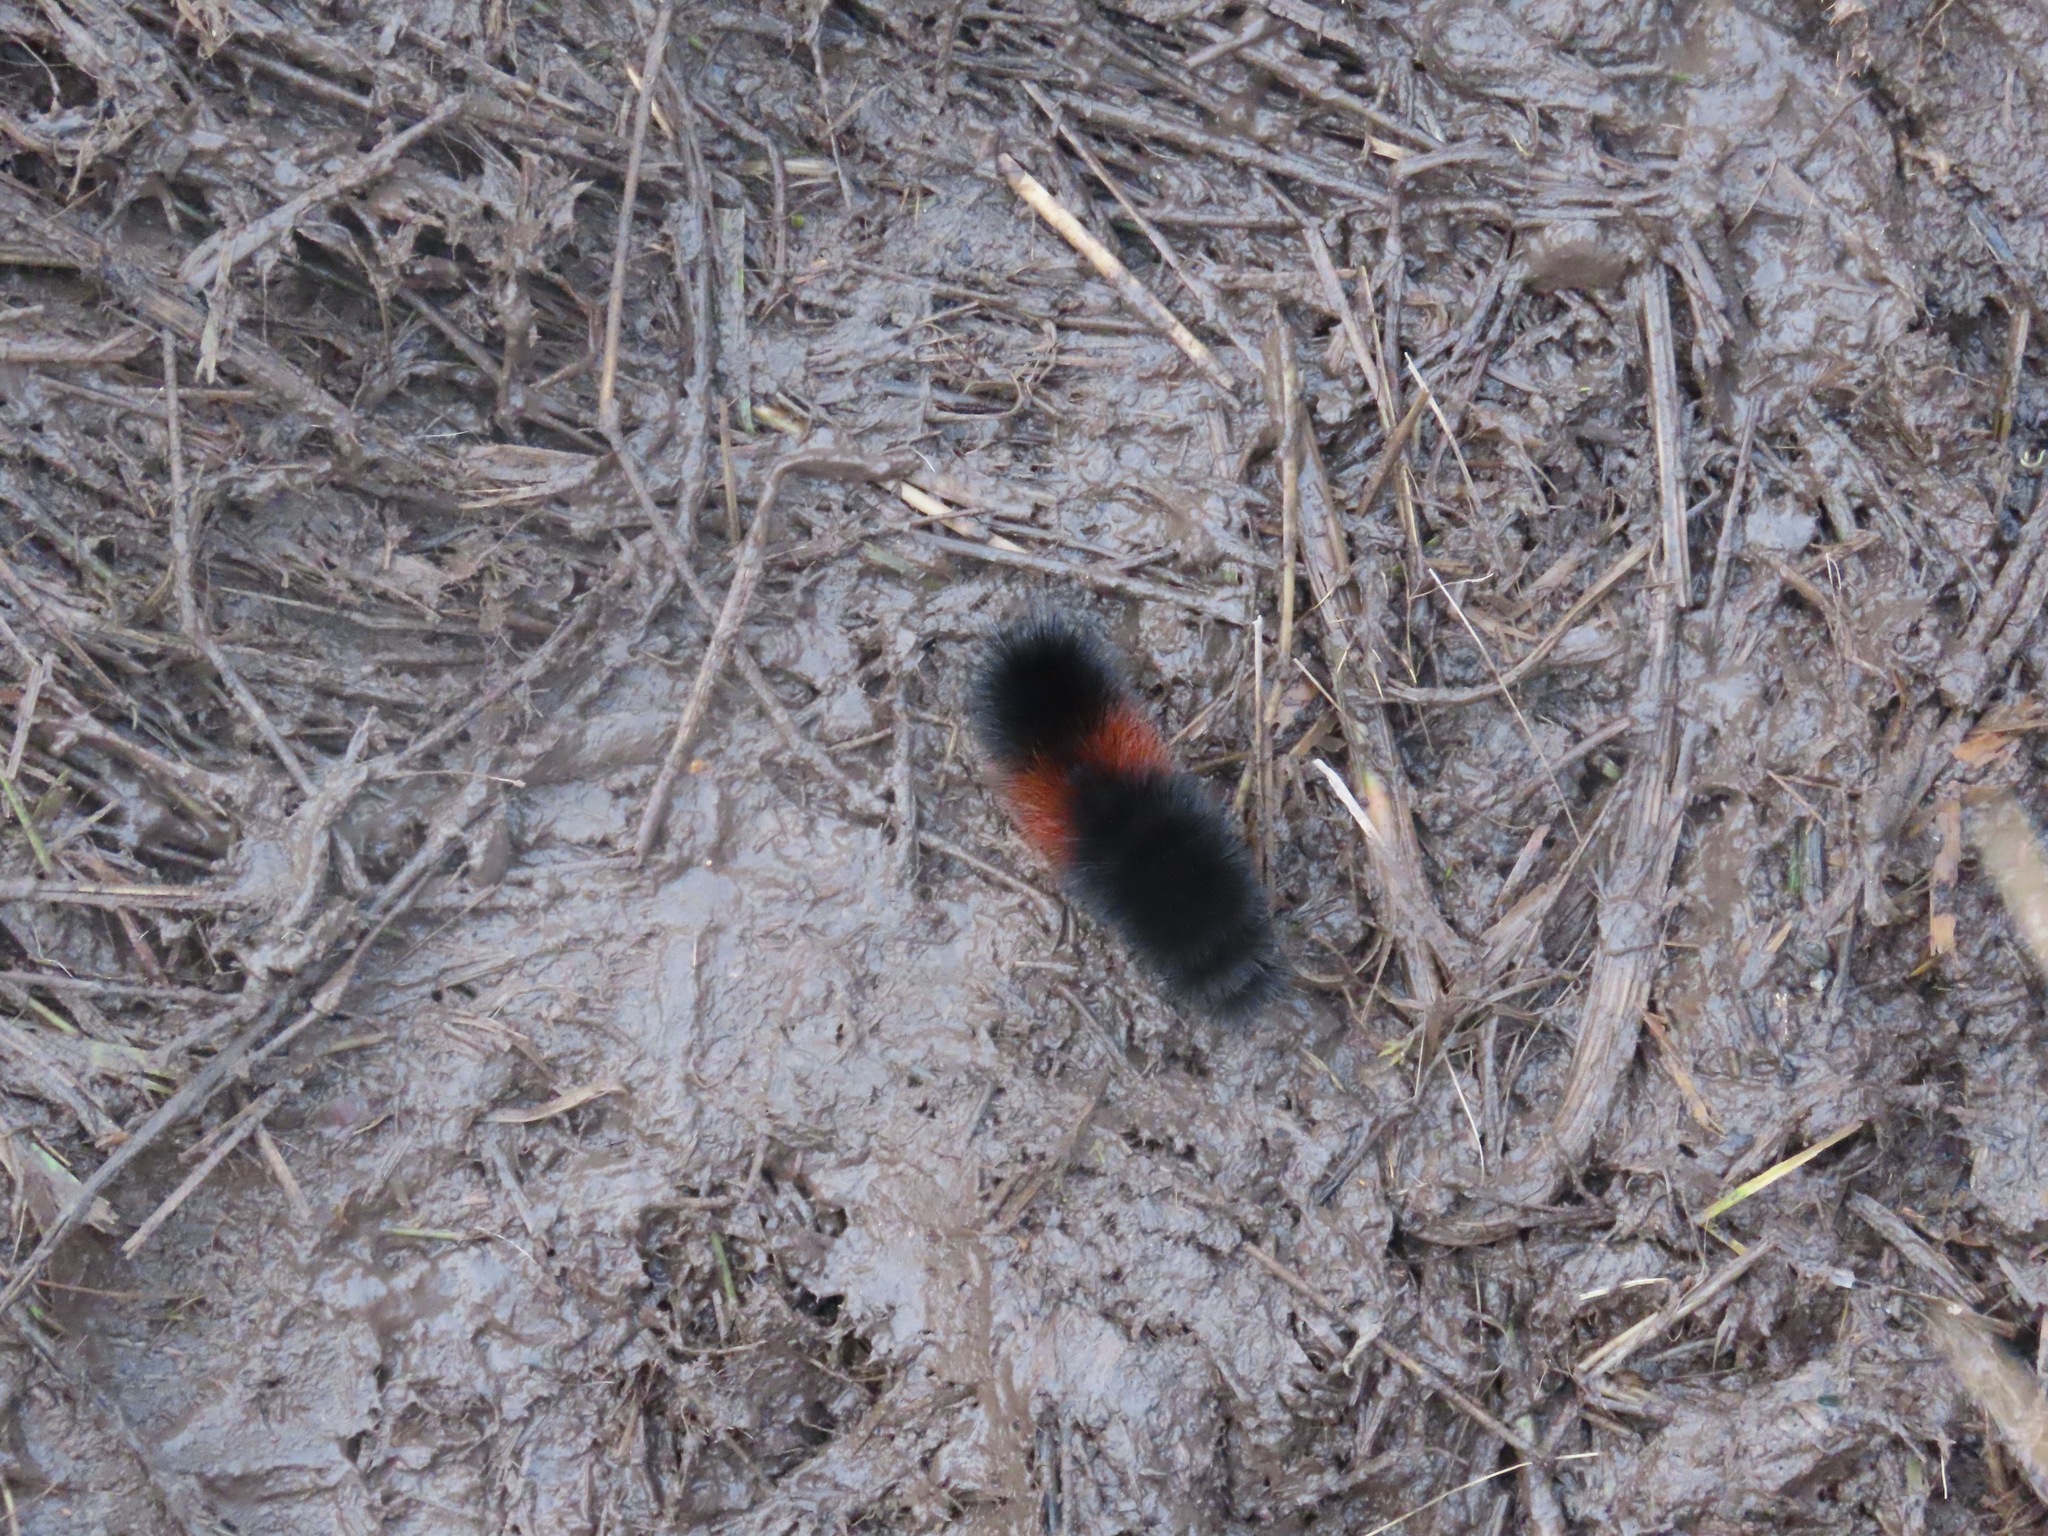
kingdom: Animalia
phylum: Arthropoda
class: Insecta
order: Lepidoptera
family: Erebidae
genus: Pyrrharctia
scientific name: Pyrrharctia isabella
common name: Isabella tiger moth
